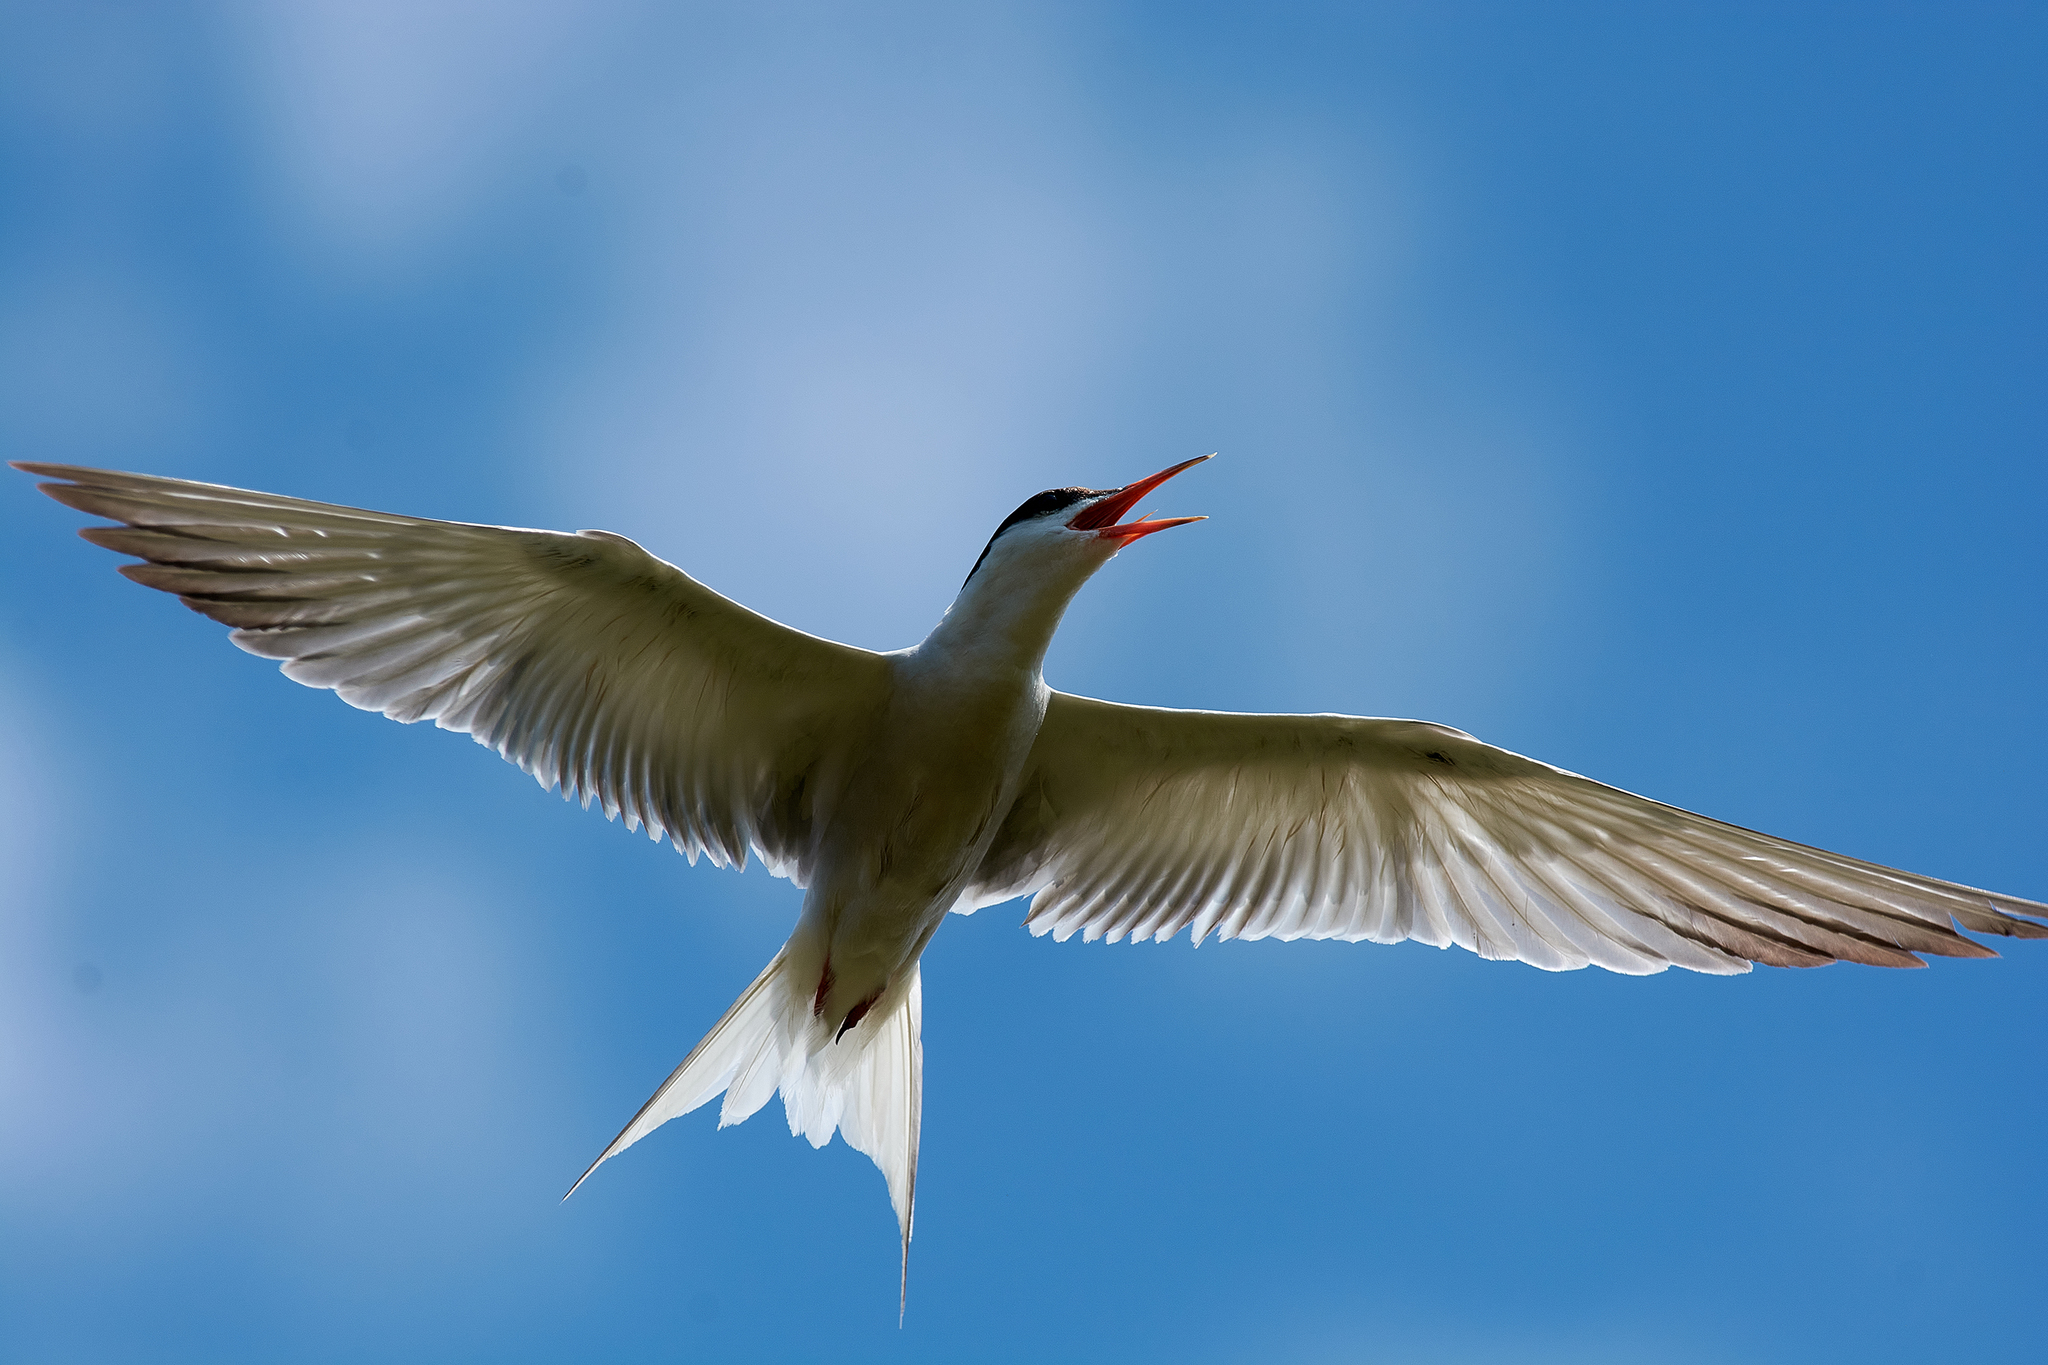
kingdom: Animalia
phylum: Chordata
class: Aves
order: Charadriiformes
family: Laridae
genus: Sterna
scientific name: Sterna hirundo
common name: Common tern
